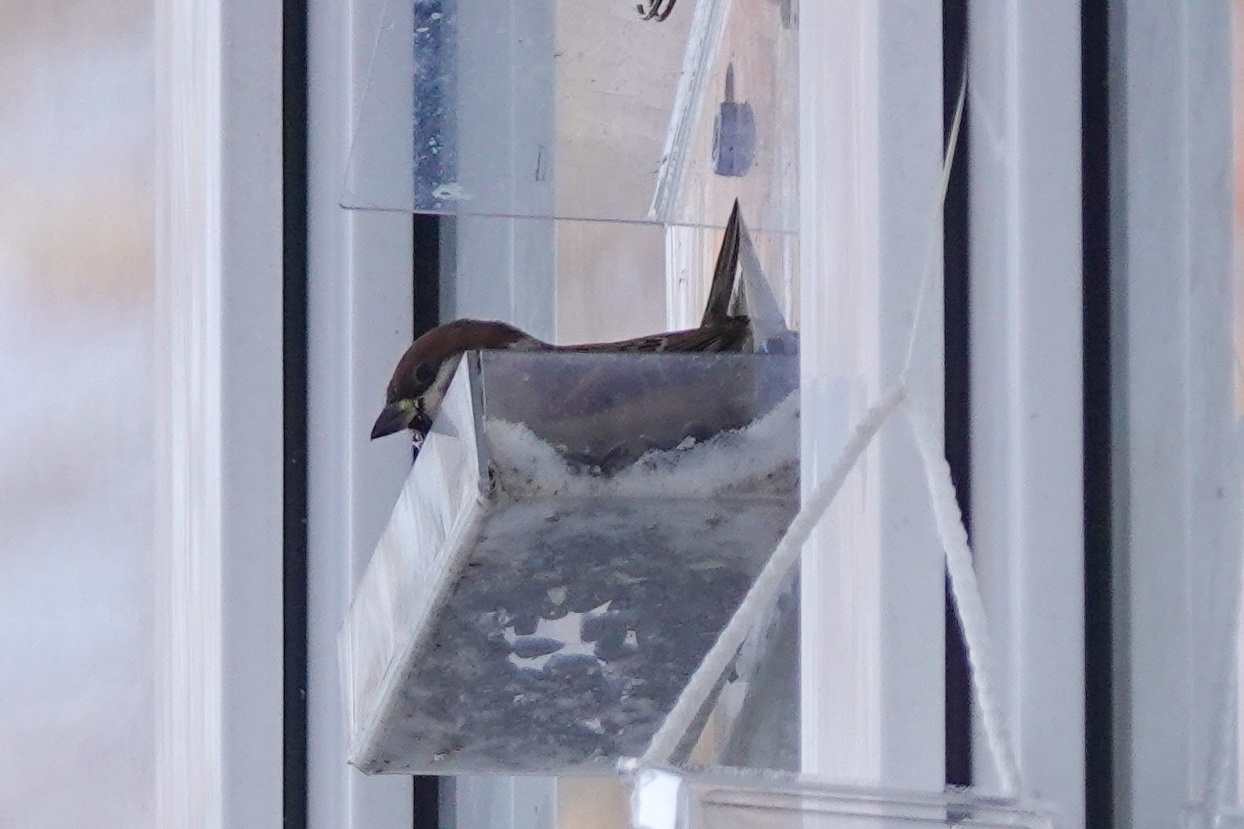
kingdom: Animalia
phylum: Chordata
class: Aves
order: Passeriformes
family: Passeridae
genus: Passer
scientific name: Passer montanus
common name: Eurasian tree sparrow
